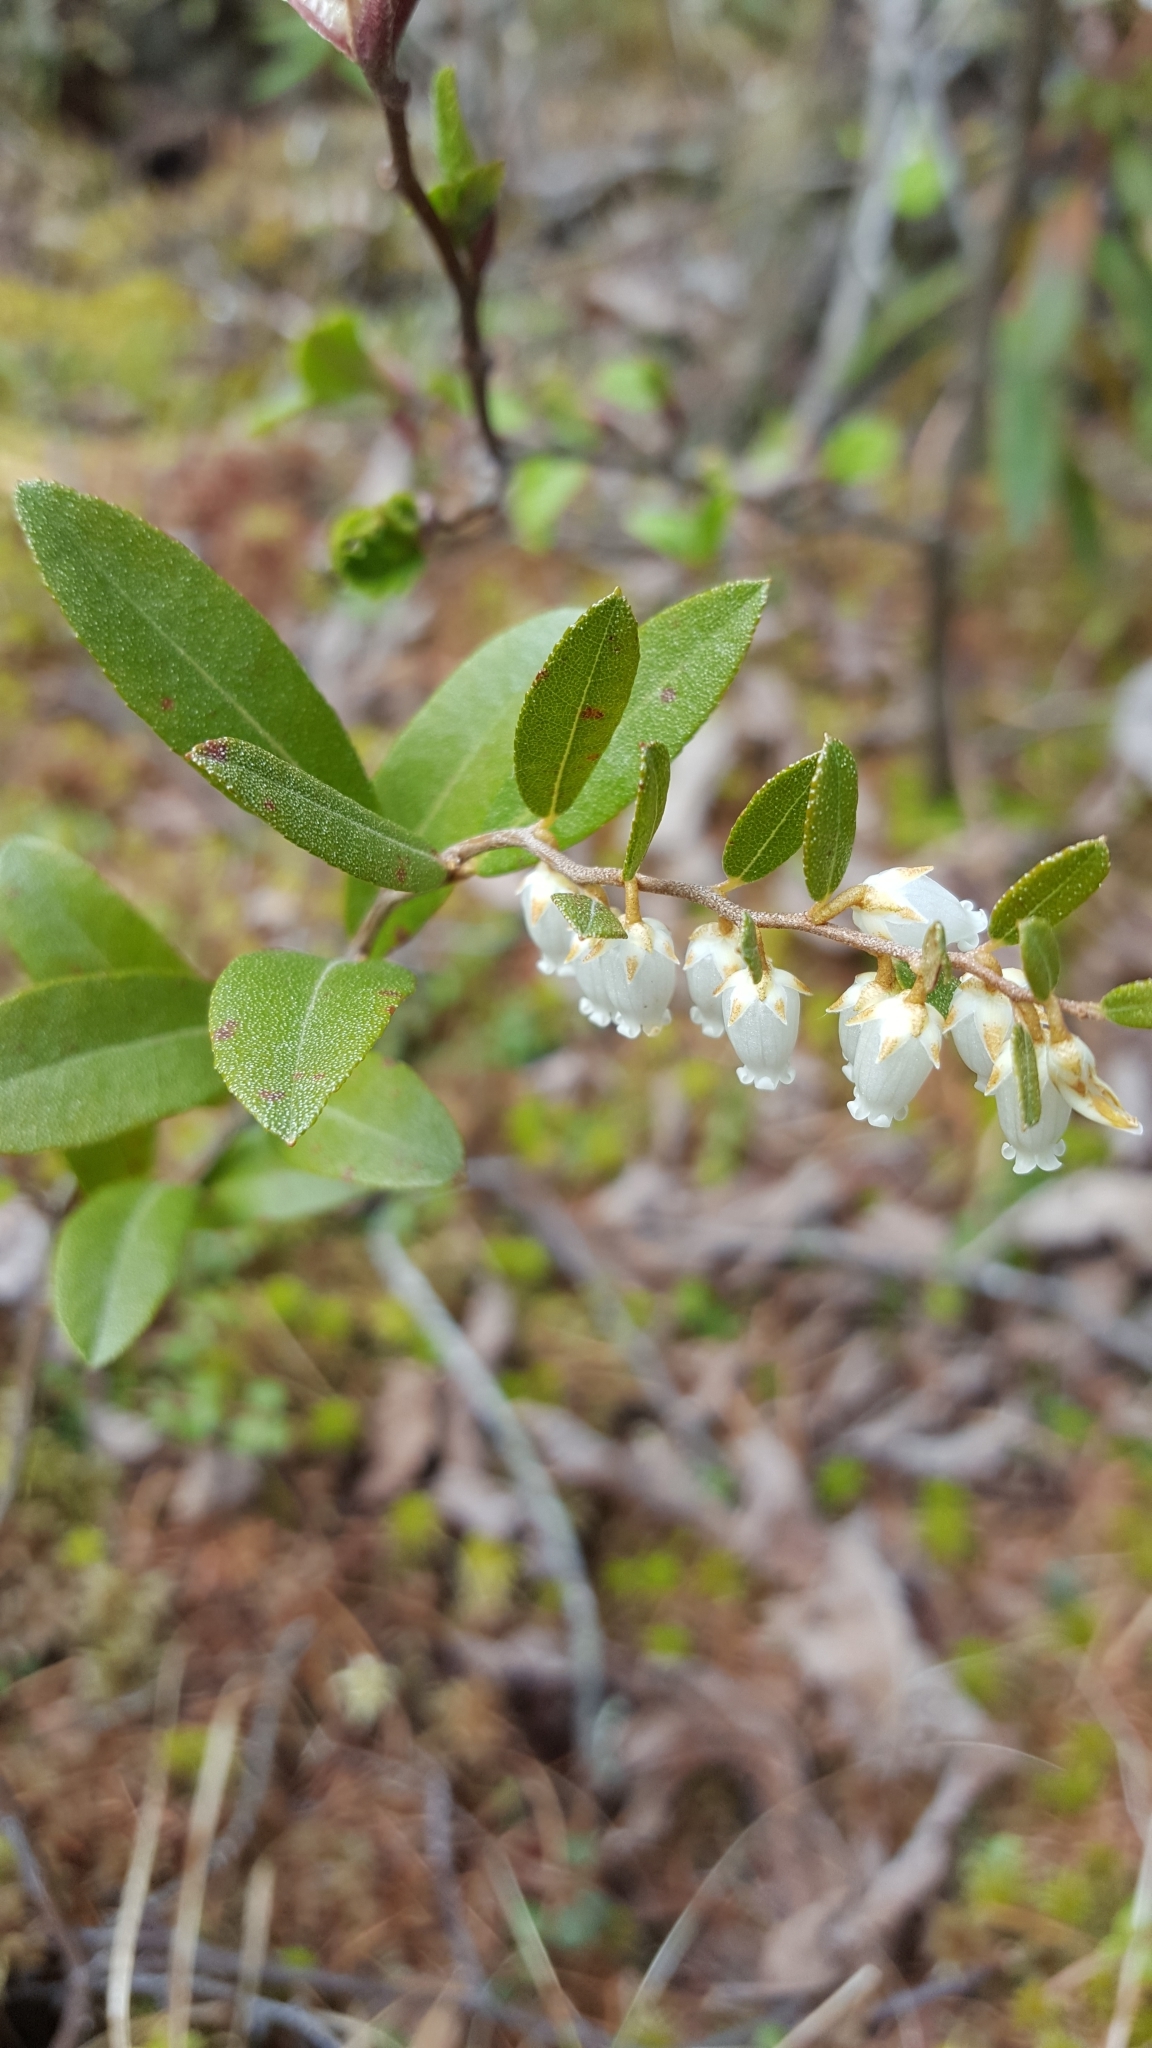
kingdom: Plantae
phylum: Tracheophyta
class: Magnoliopsida
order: Ericales
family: Ericaceae
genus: Chamaedaphne
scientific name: Chamaedaphne calyculata
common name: Leatherleaf
